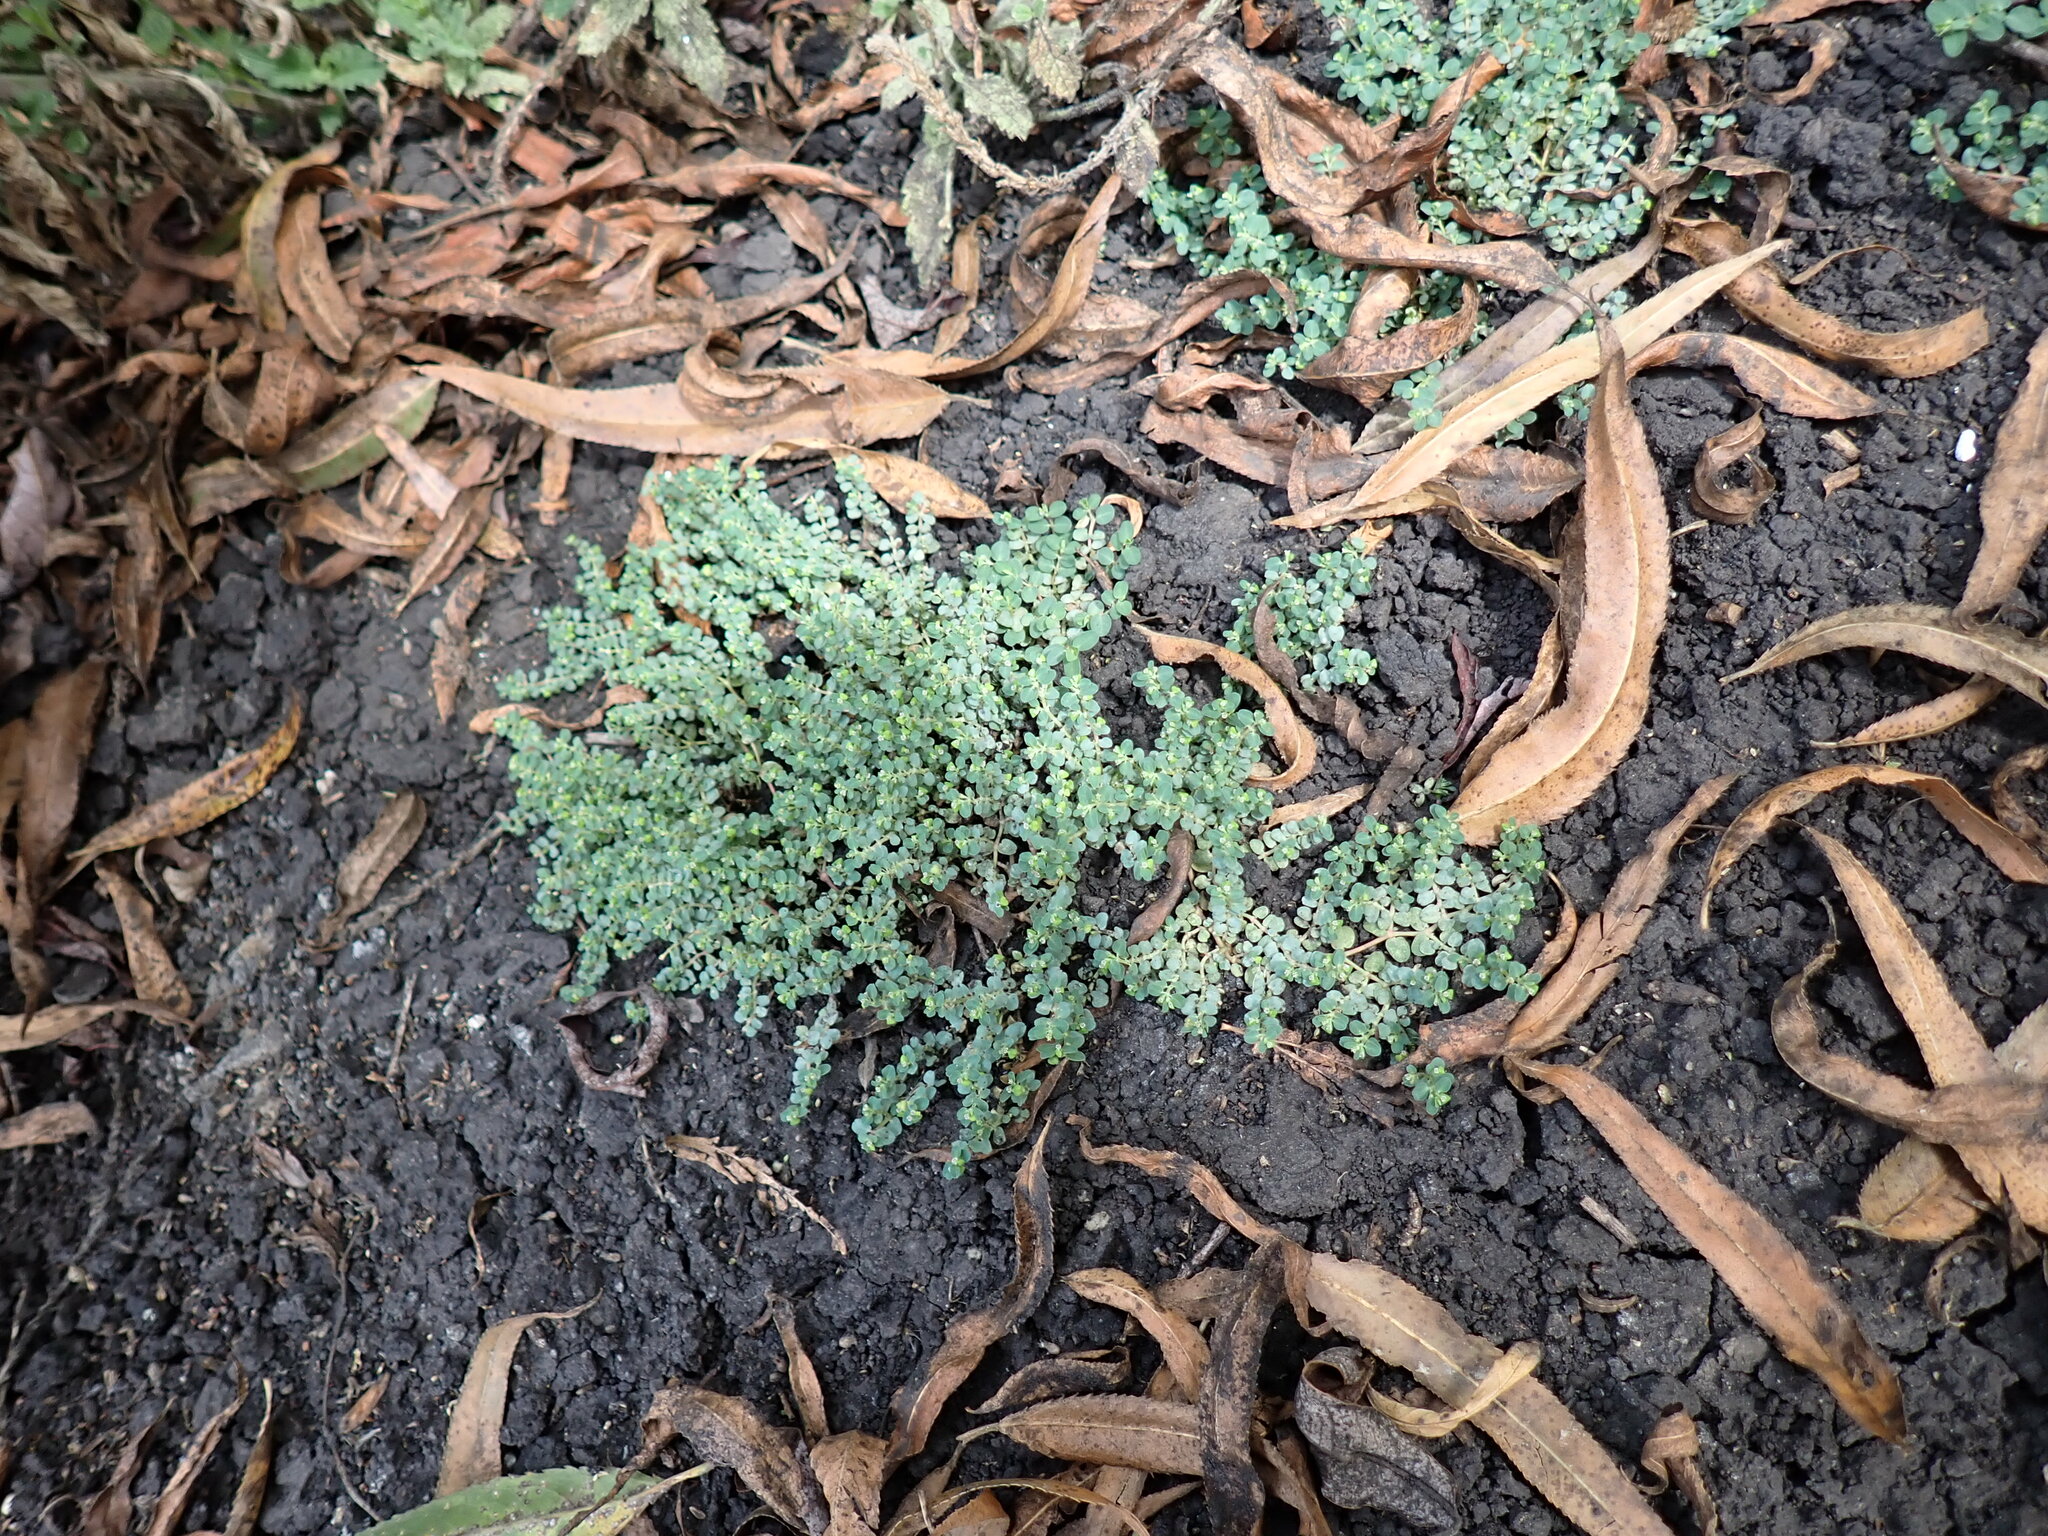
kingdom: Plantae
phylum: Tracheophyta
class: Magnoliopsida
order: Malpighiales
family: Euphorbiaceae
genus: Euphorbia
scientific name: Euphorbia serpens
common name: Matted sandmat
